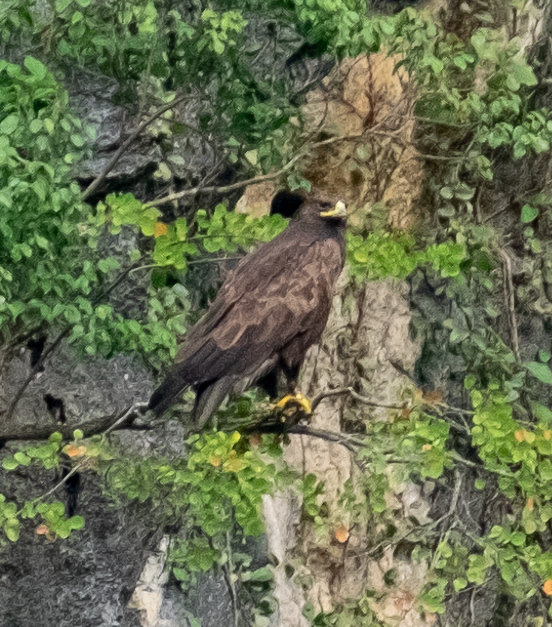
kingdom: Animalia
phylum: Chordata
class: Aves
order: Accipitriformes
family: Accipitridae
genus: Ictinaetus
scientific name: Ictinaetus malayensis
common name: Black eagle
